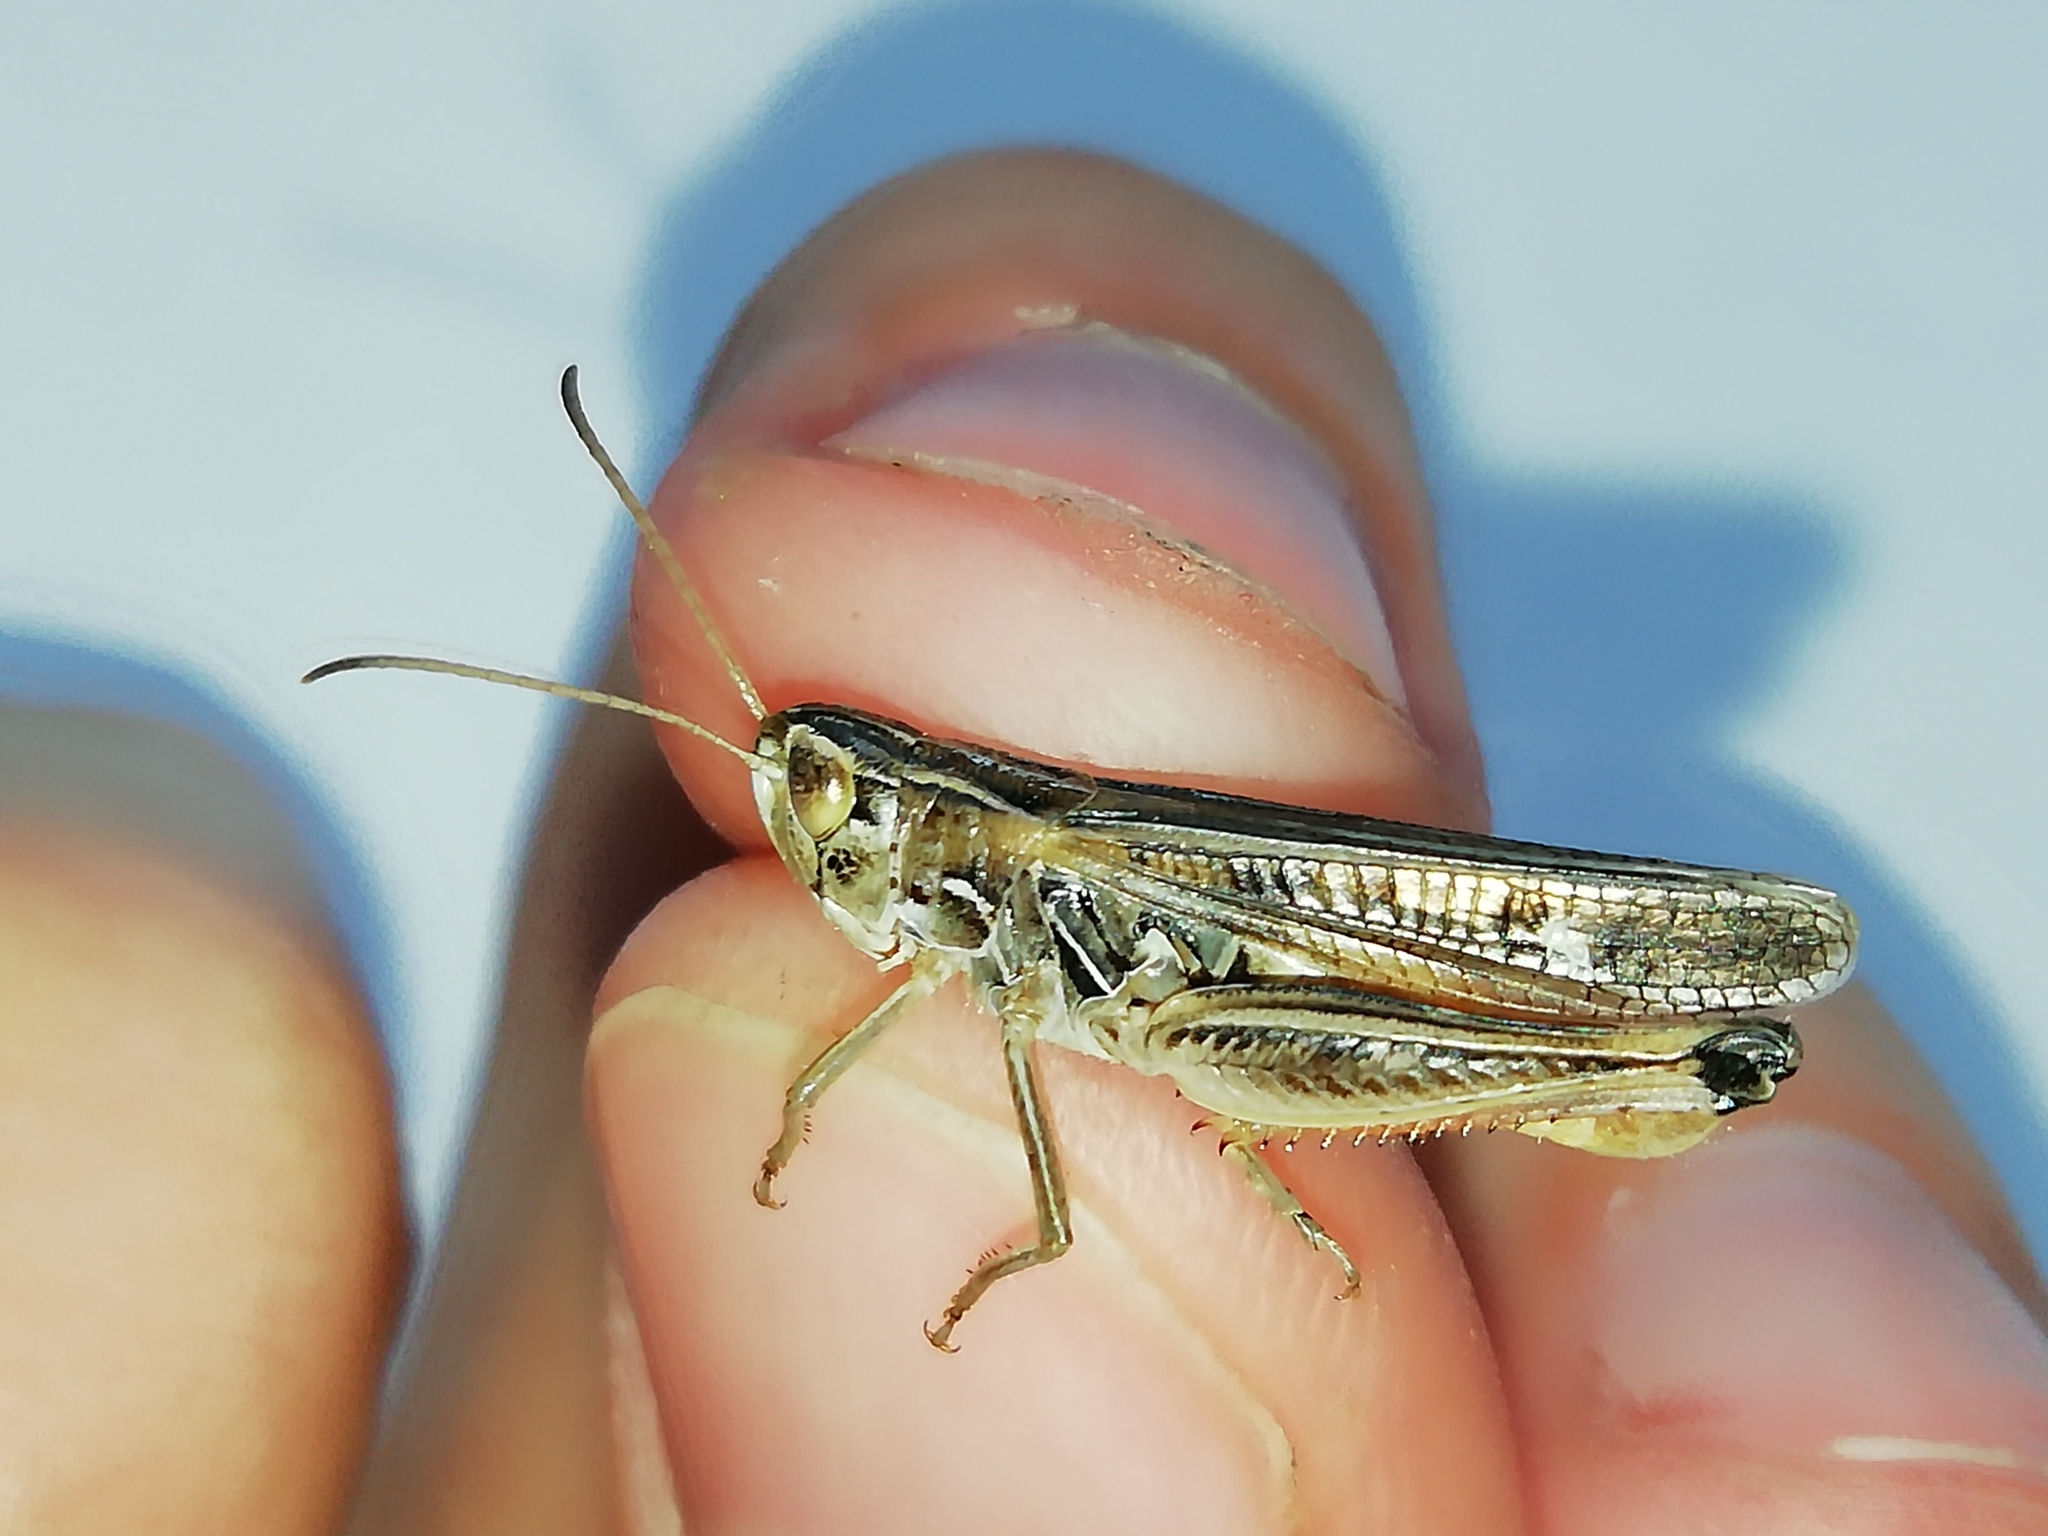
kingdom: Animalia
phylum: Arthropoda
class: Insecta
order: Orthoptera
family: Acrididae
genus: Stenobothrus
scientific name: Stenobothrus eurasius
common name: Eurasian toothed grasshopper
